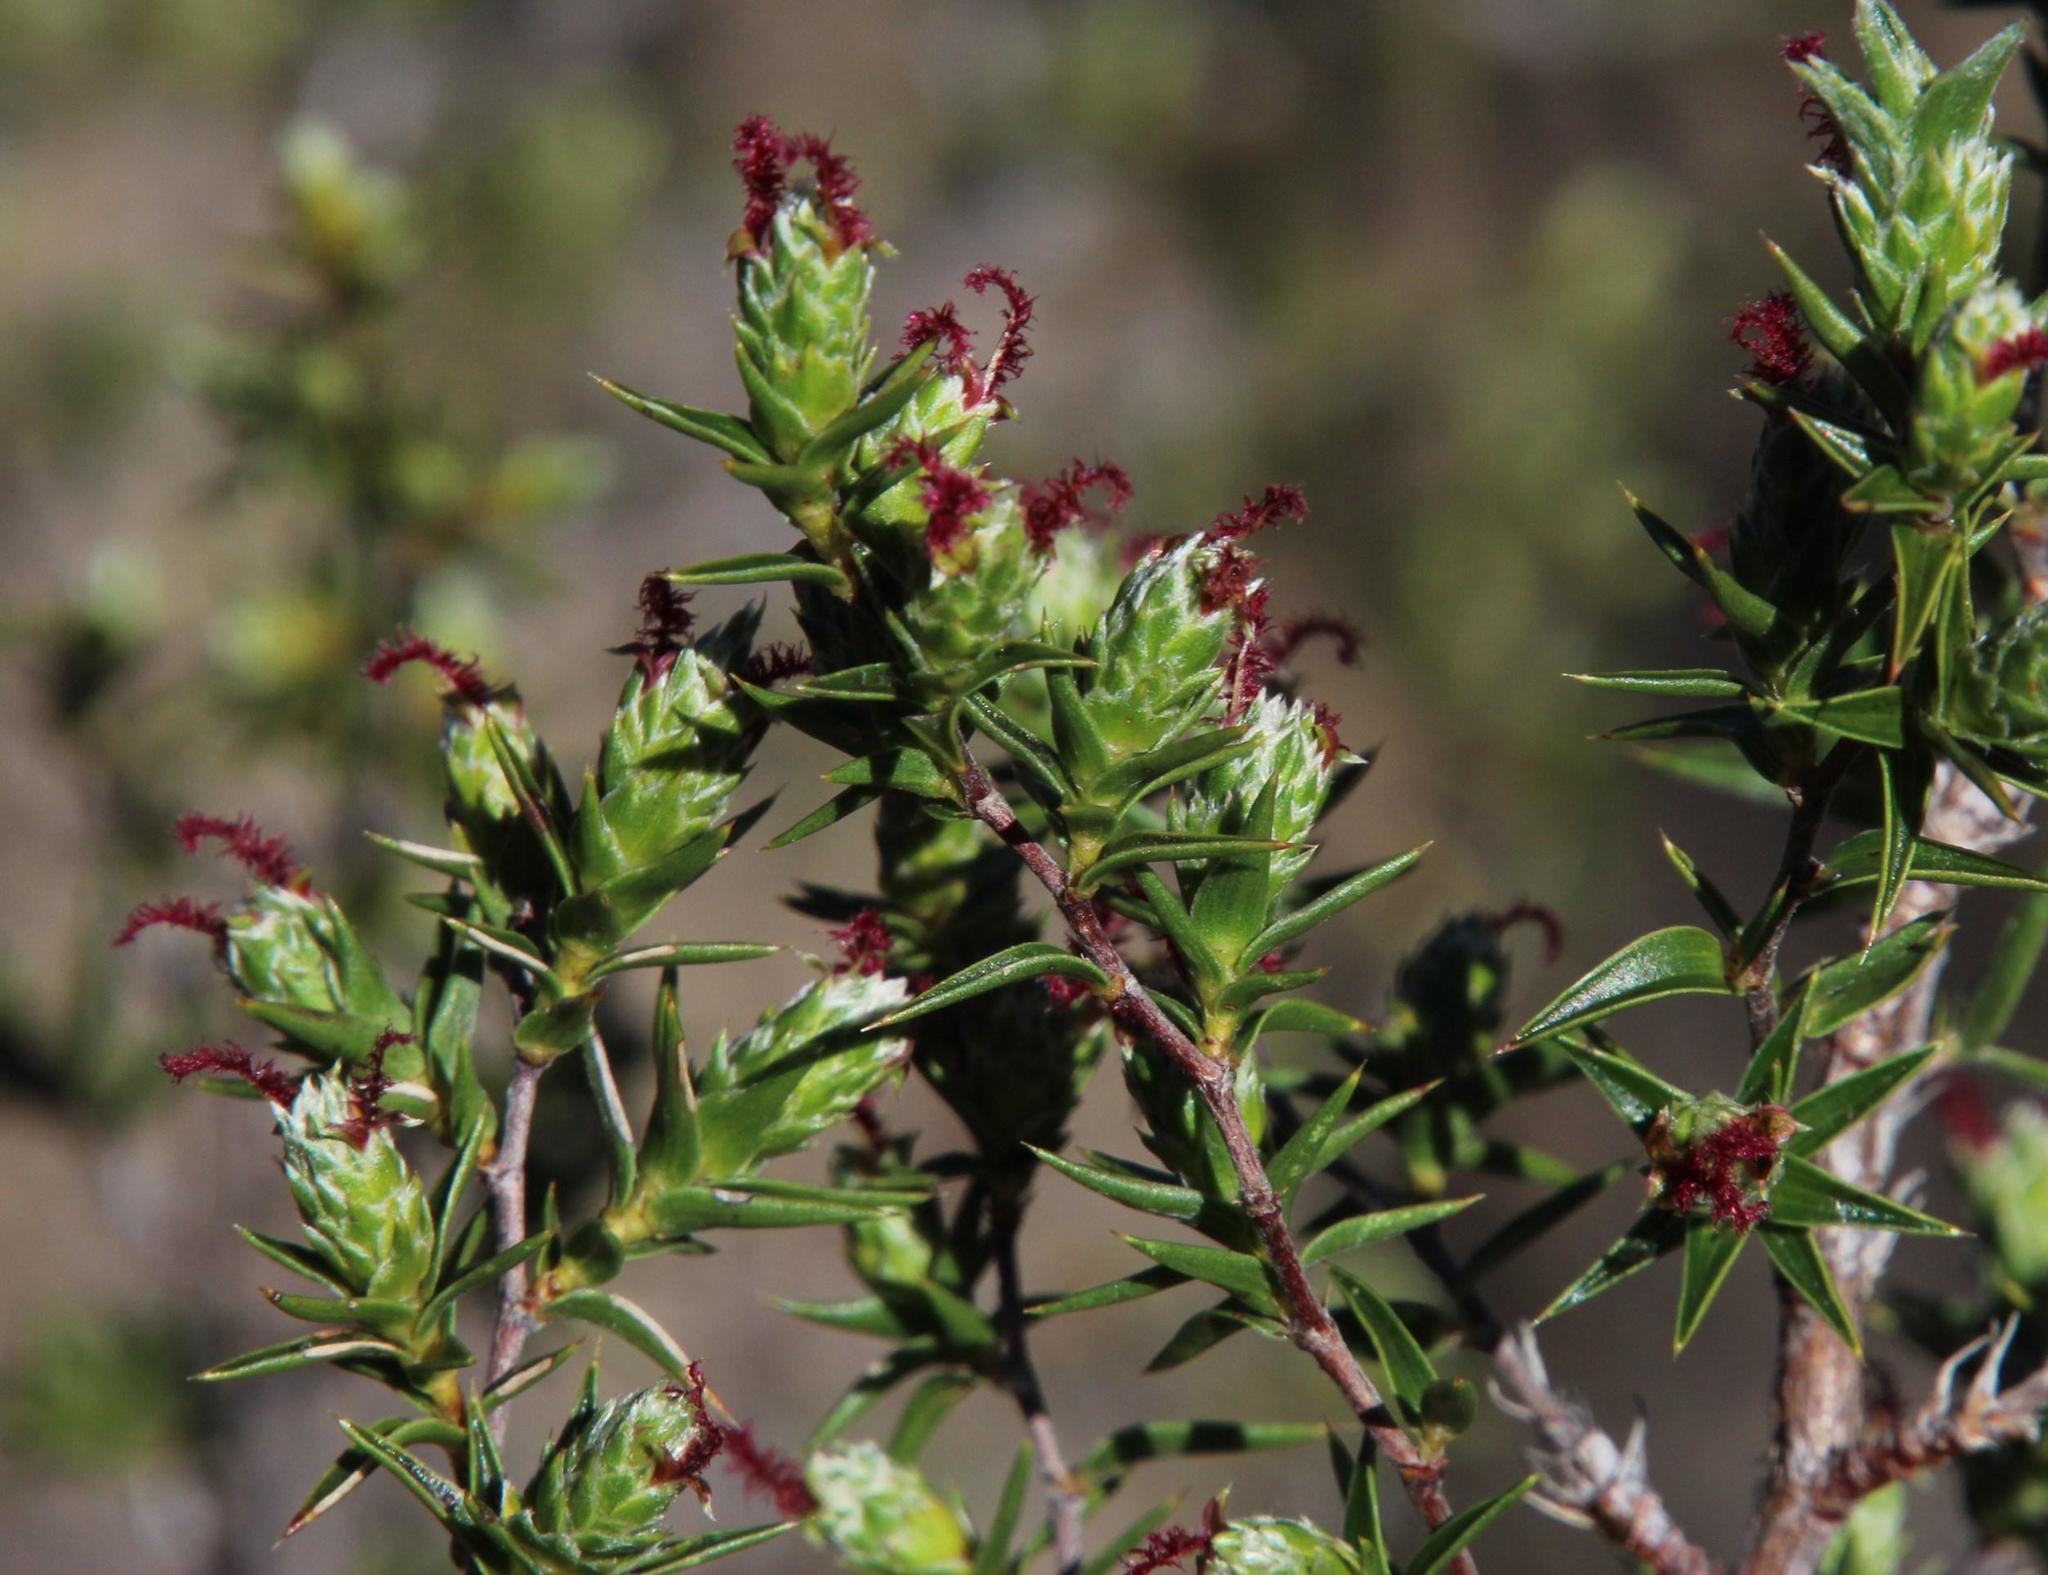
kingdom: Plantae
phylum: Tracheophyta
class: Magnoliopsida
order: Rosales
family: Rosaceae
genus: Cliffortia
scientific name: Cliffortia ruscifolia
